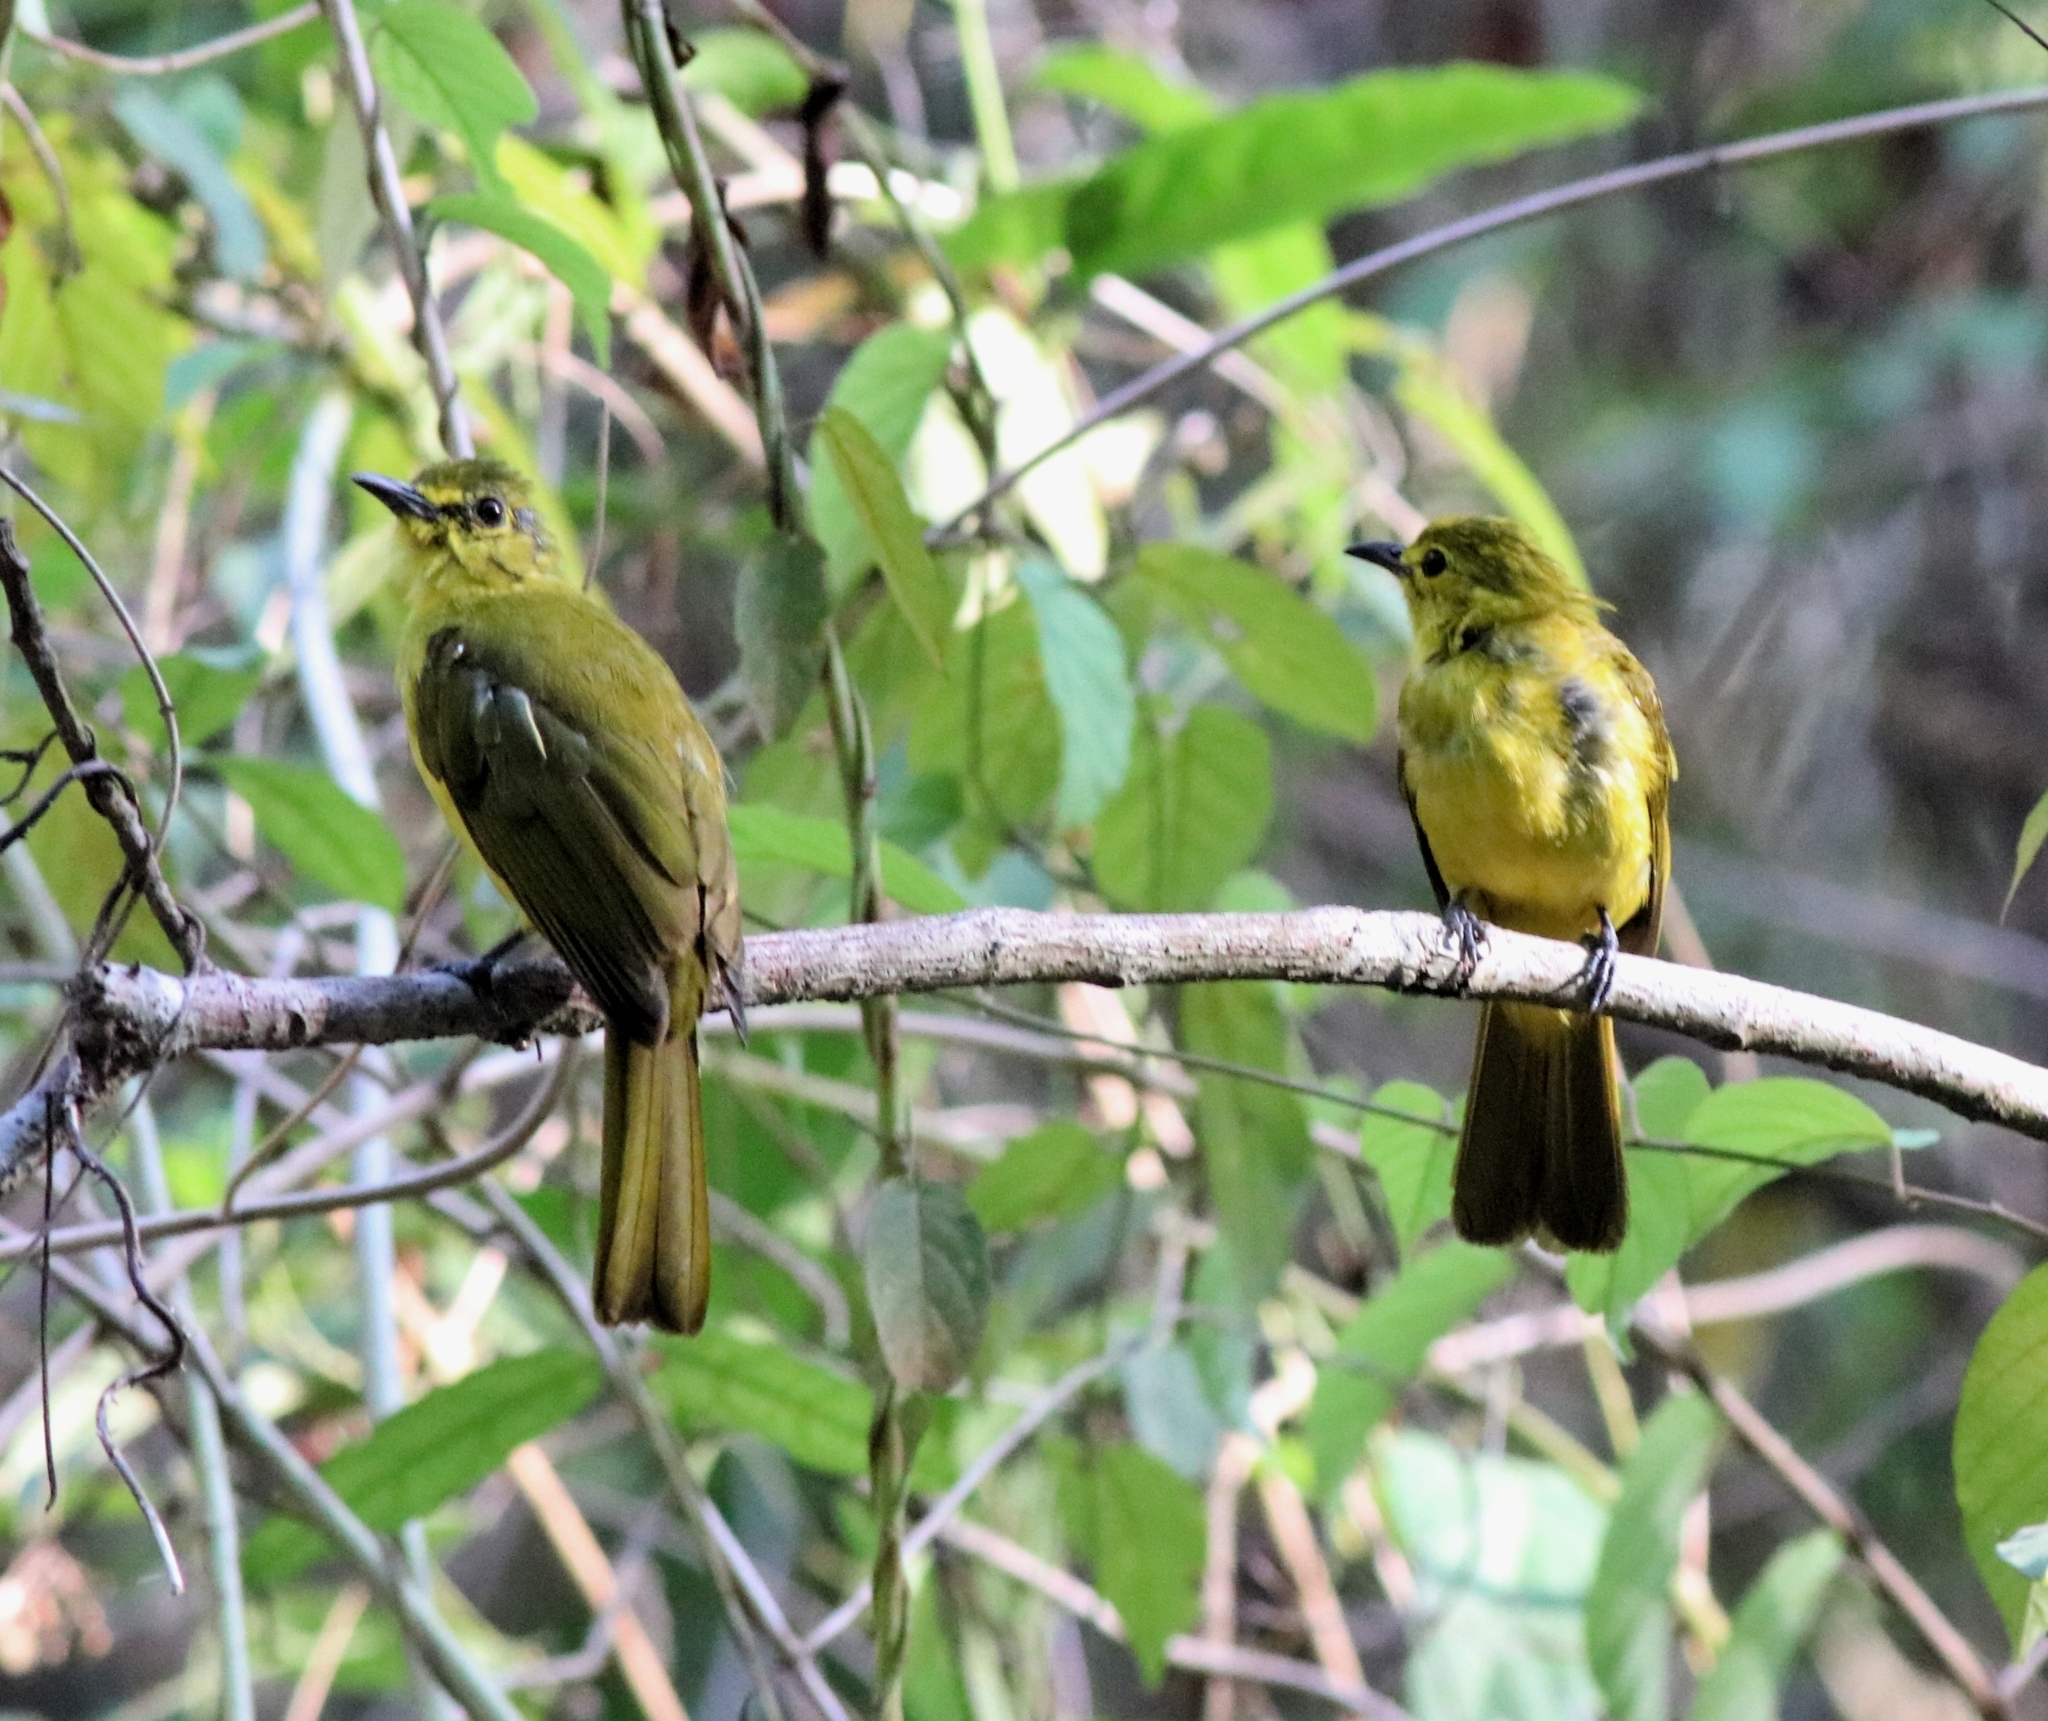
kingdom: Animalia
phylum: Chordata
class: Aves
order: Passeriformes
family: Pycnonotidae
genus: Acritillas
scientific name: Acritillas indica
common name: Yellow-browed bulbul
